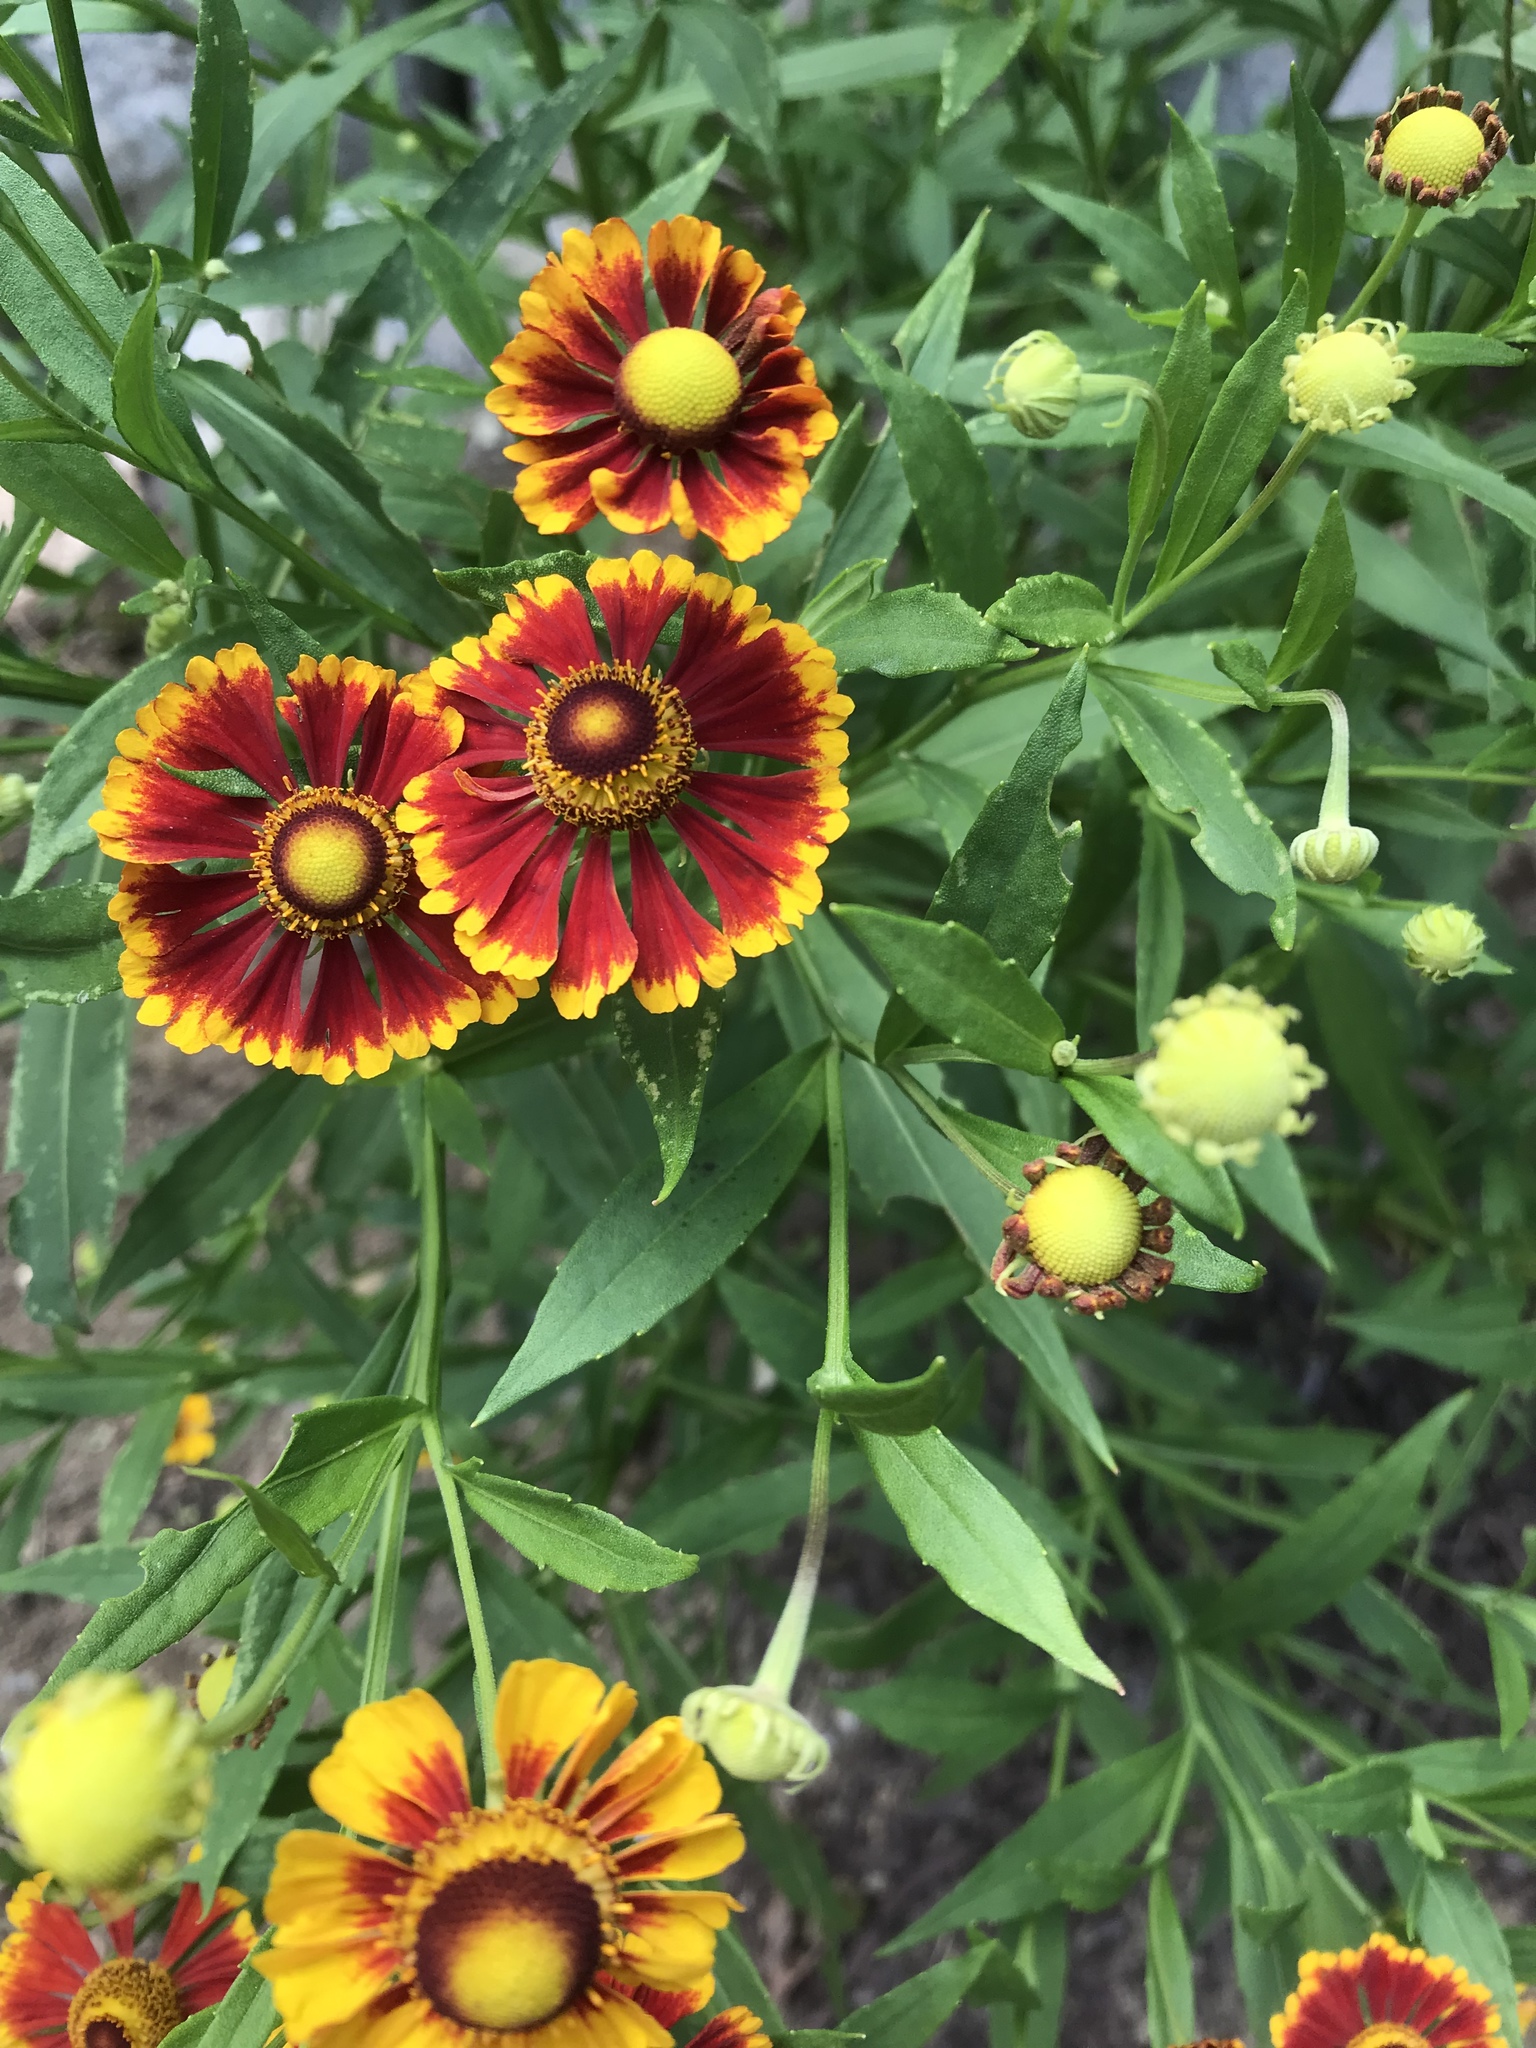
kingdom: Plantae
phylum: Tracheophyta
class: Magnoliopsida
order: Asterales
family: Asteraceae
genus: Helenium
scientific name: Helenium autumnale
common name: Sneezeweed
